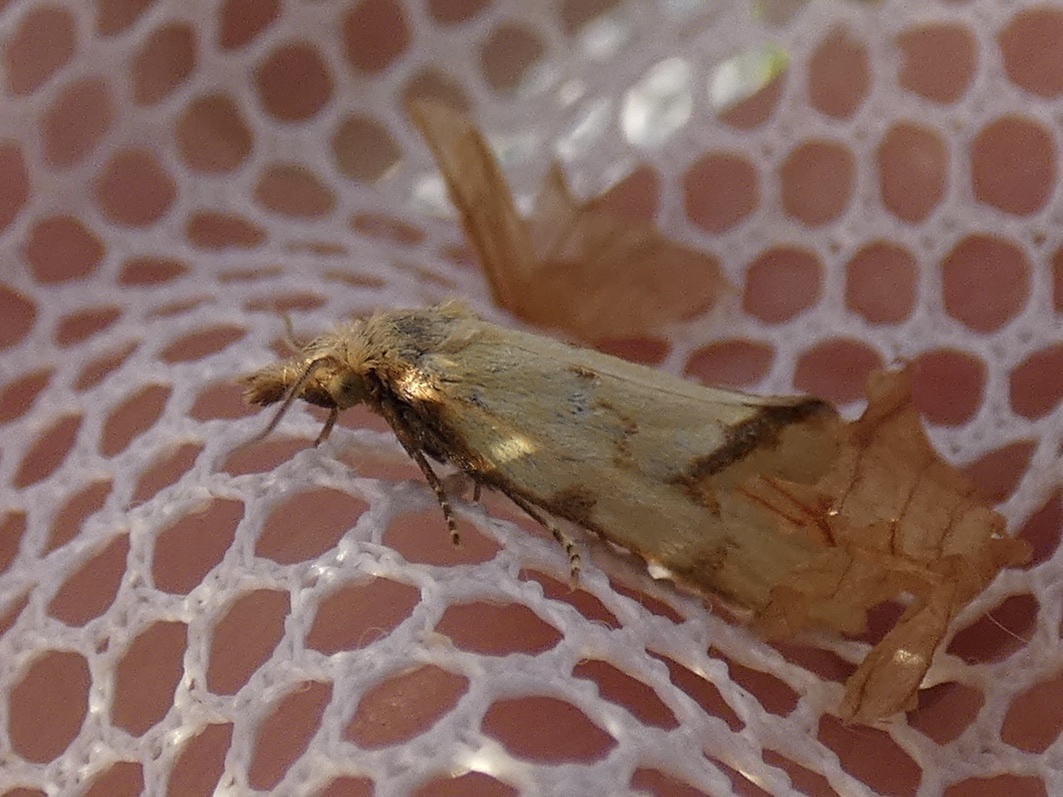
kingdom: Animalia
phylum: Arthropoda
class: Insecta
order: Lepidoptera
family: Tortricidae
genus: Agapeta
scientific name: Agapeta hamana
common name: Common yellow conch
